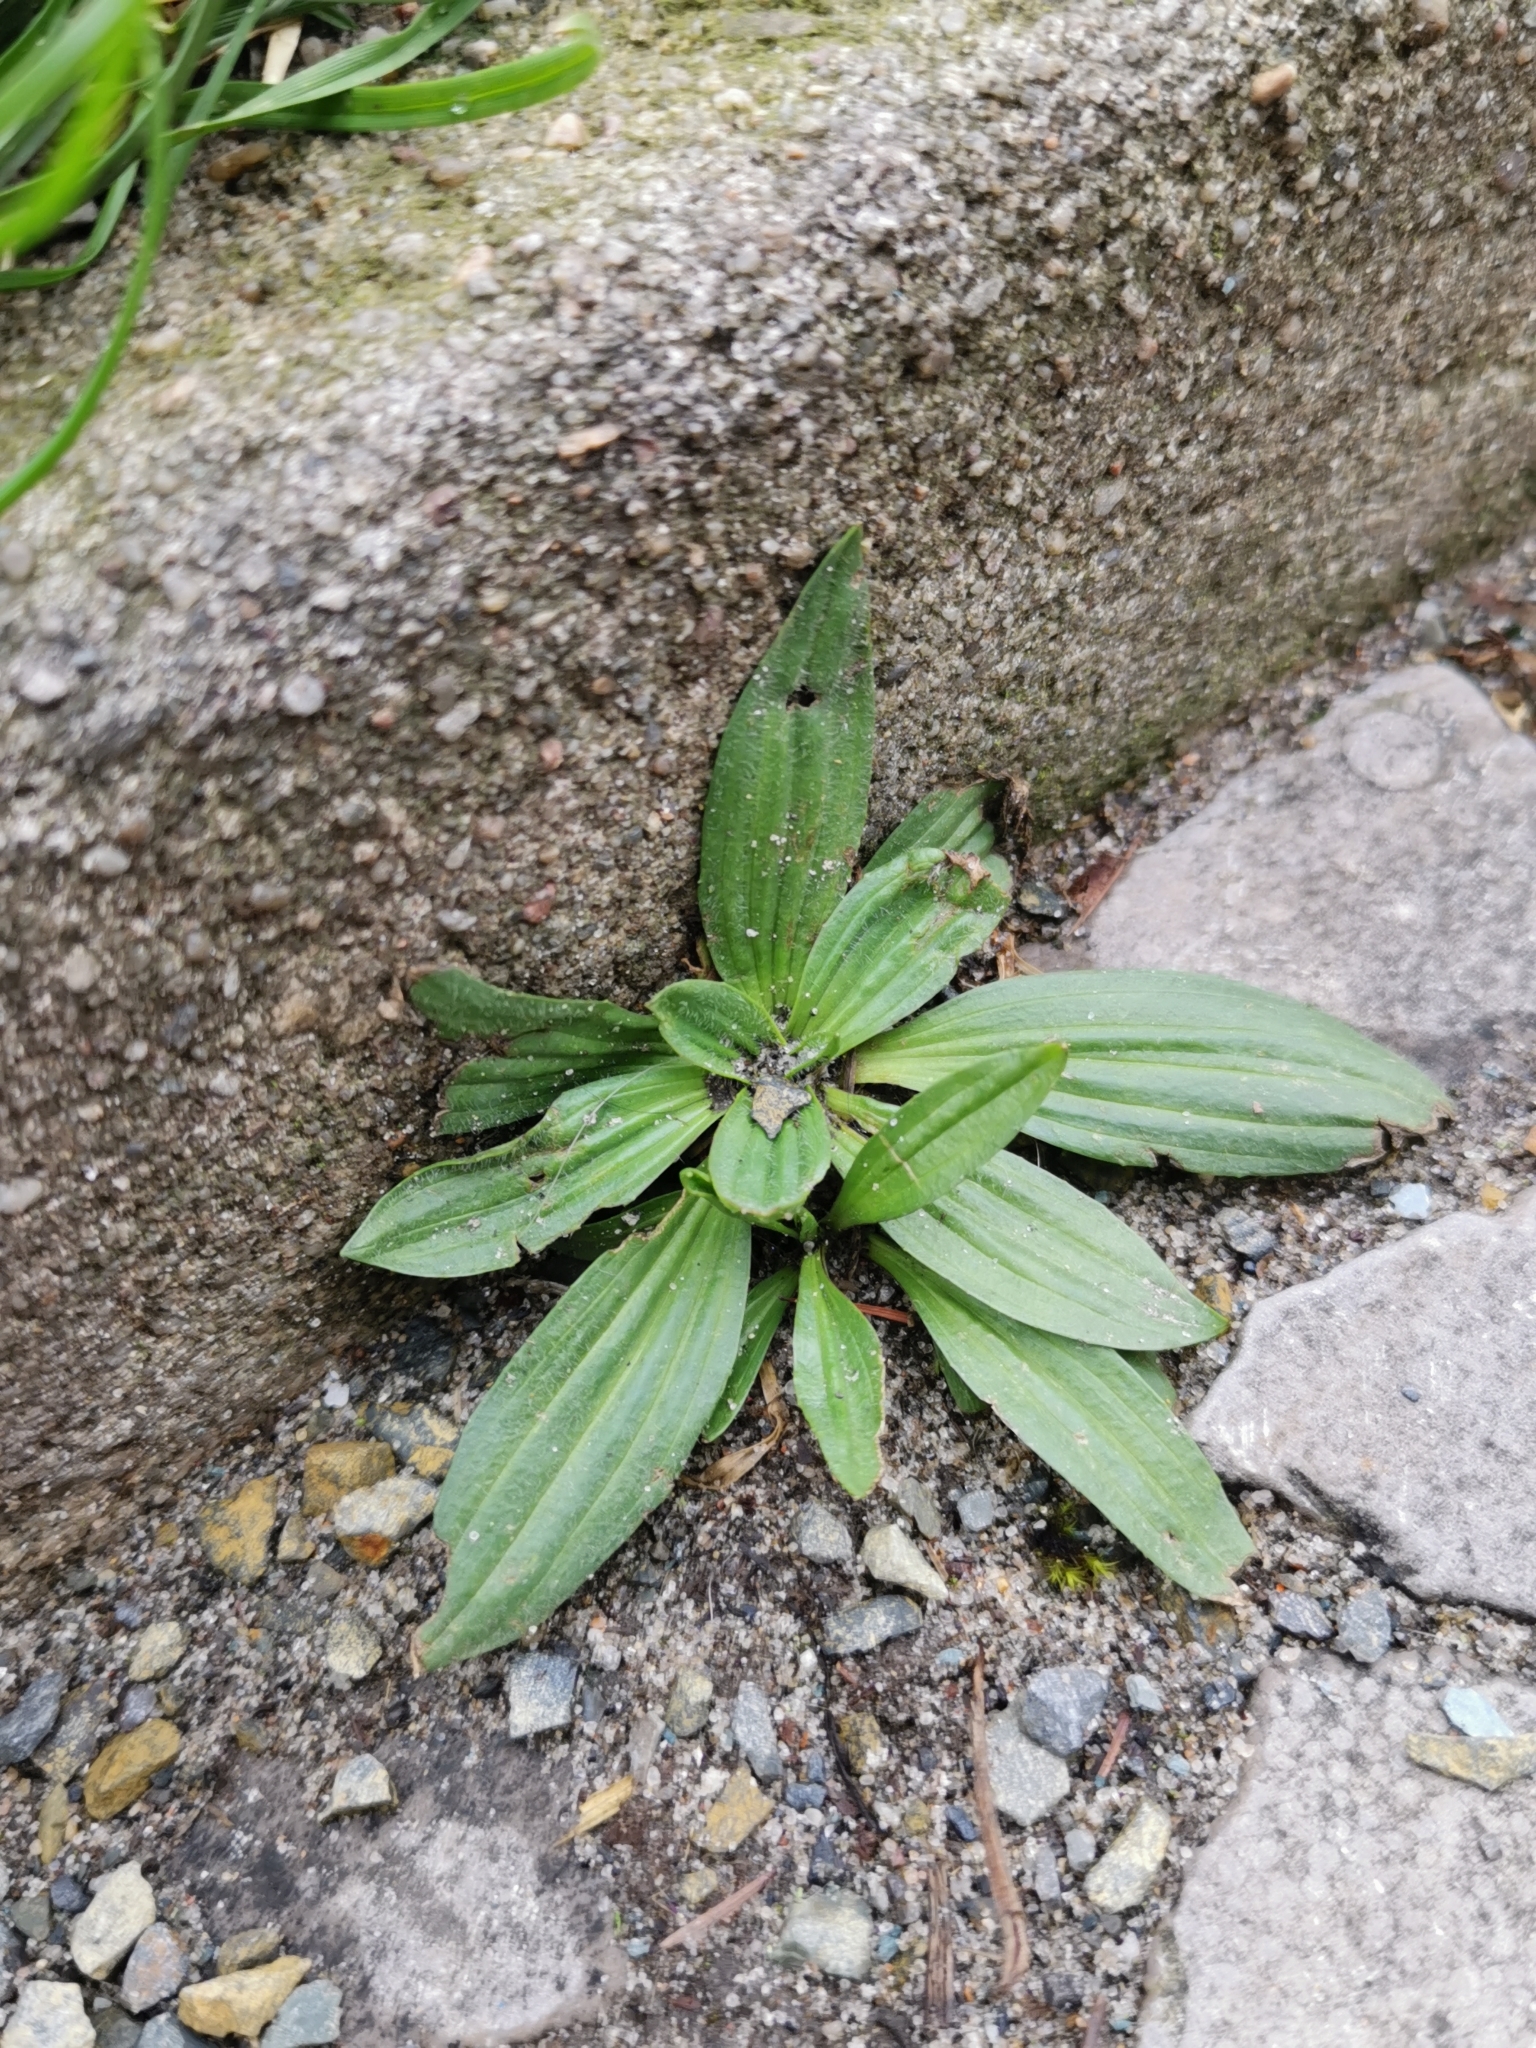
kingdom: Plantae
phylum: Tracheophyta
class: Magnoliopsida
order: Lamiales
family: Plantaginaceae
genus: Plantago
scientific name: Plantago lanceolata
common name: Ribwort plantain
